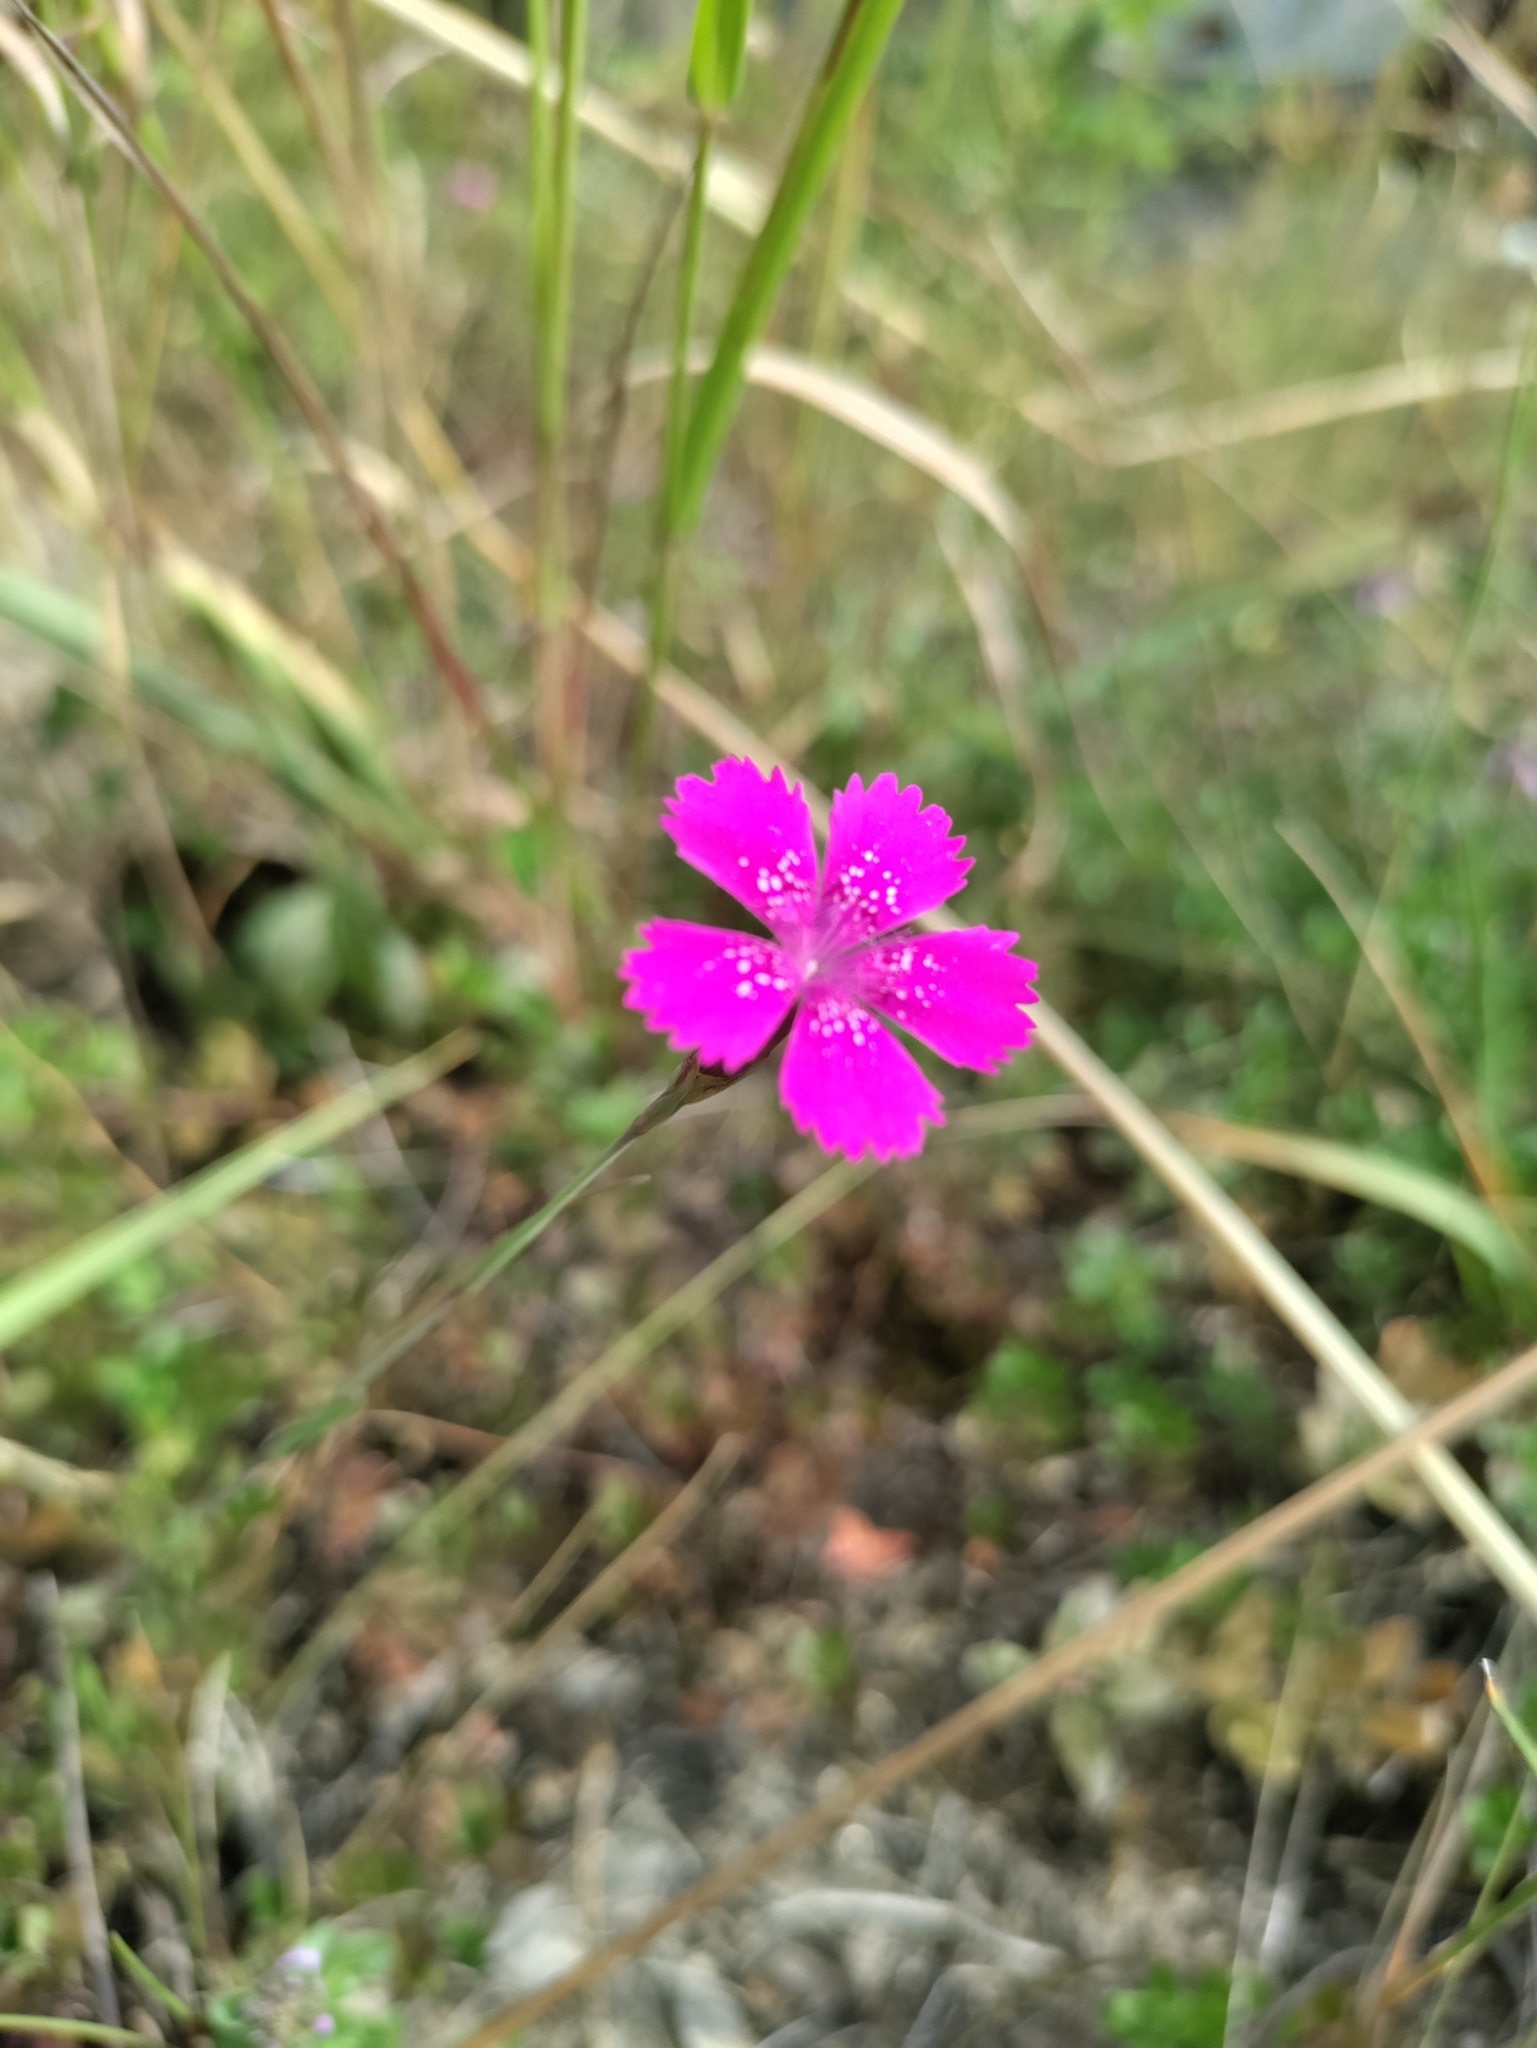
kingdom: Plantae
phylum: Tracheophyta
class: Magnoliopsida
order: Caryophyllales
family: Caryophyllaceae
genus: Dianthus
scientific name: Dianthus deltoides
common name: Maiden pink
